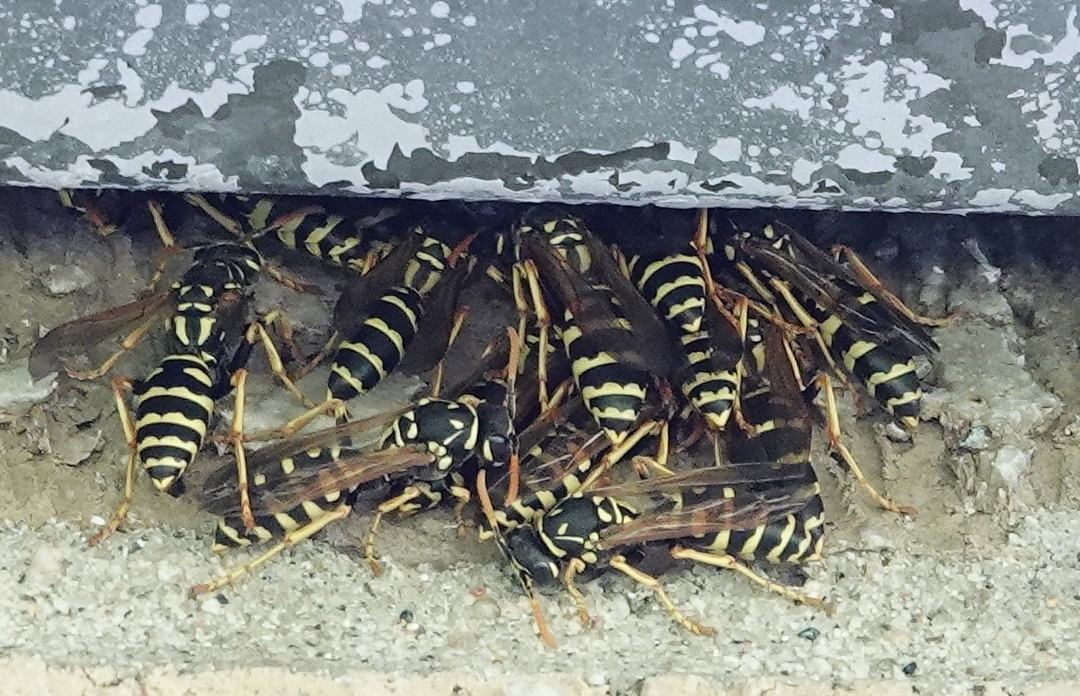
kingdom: Animalia
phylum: Arthropoda
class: Insecta
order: Hymenoptera
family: Eumenidae
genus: Polistes
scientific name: Polistes dominula
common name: Paper wasp
